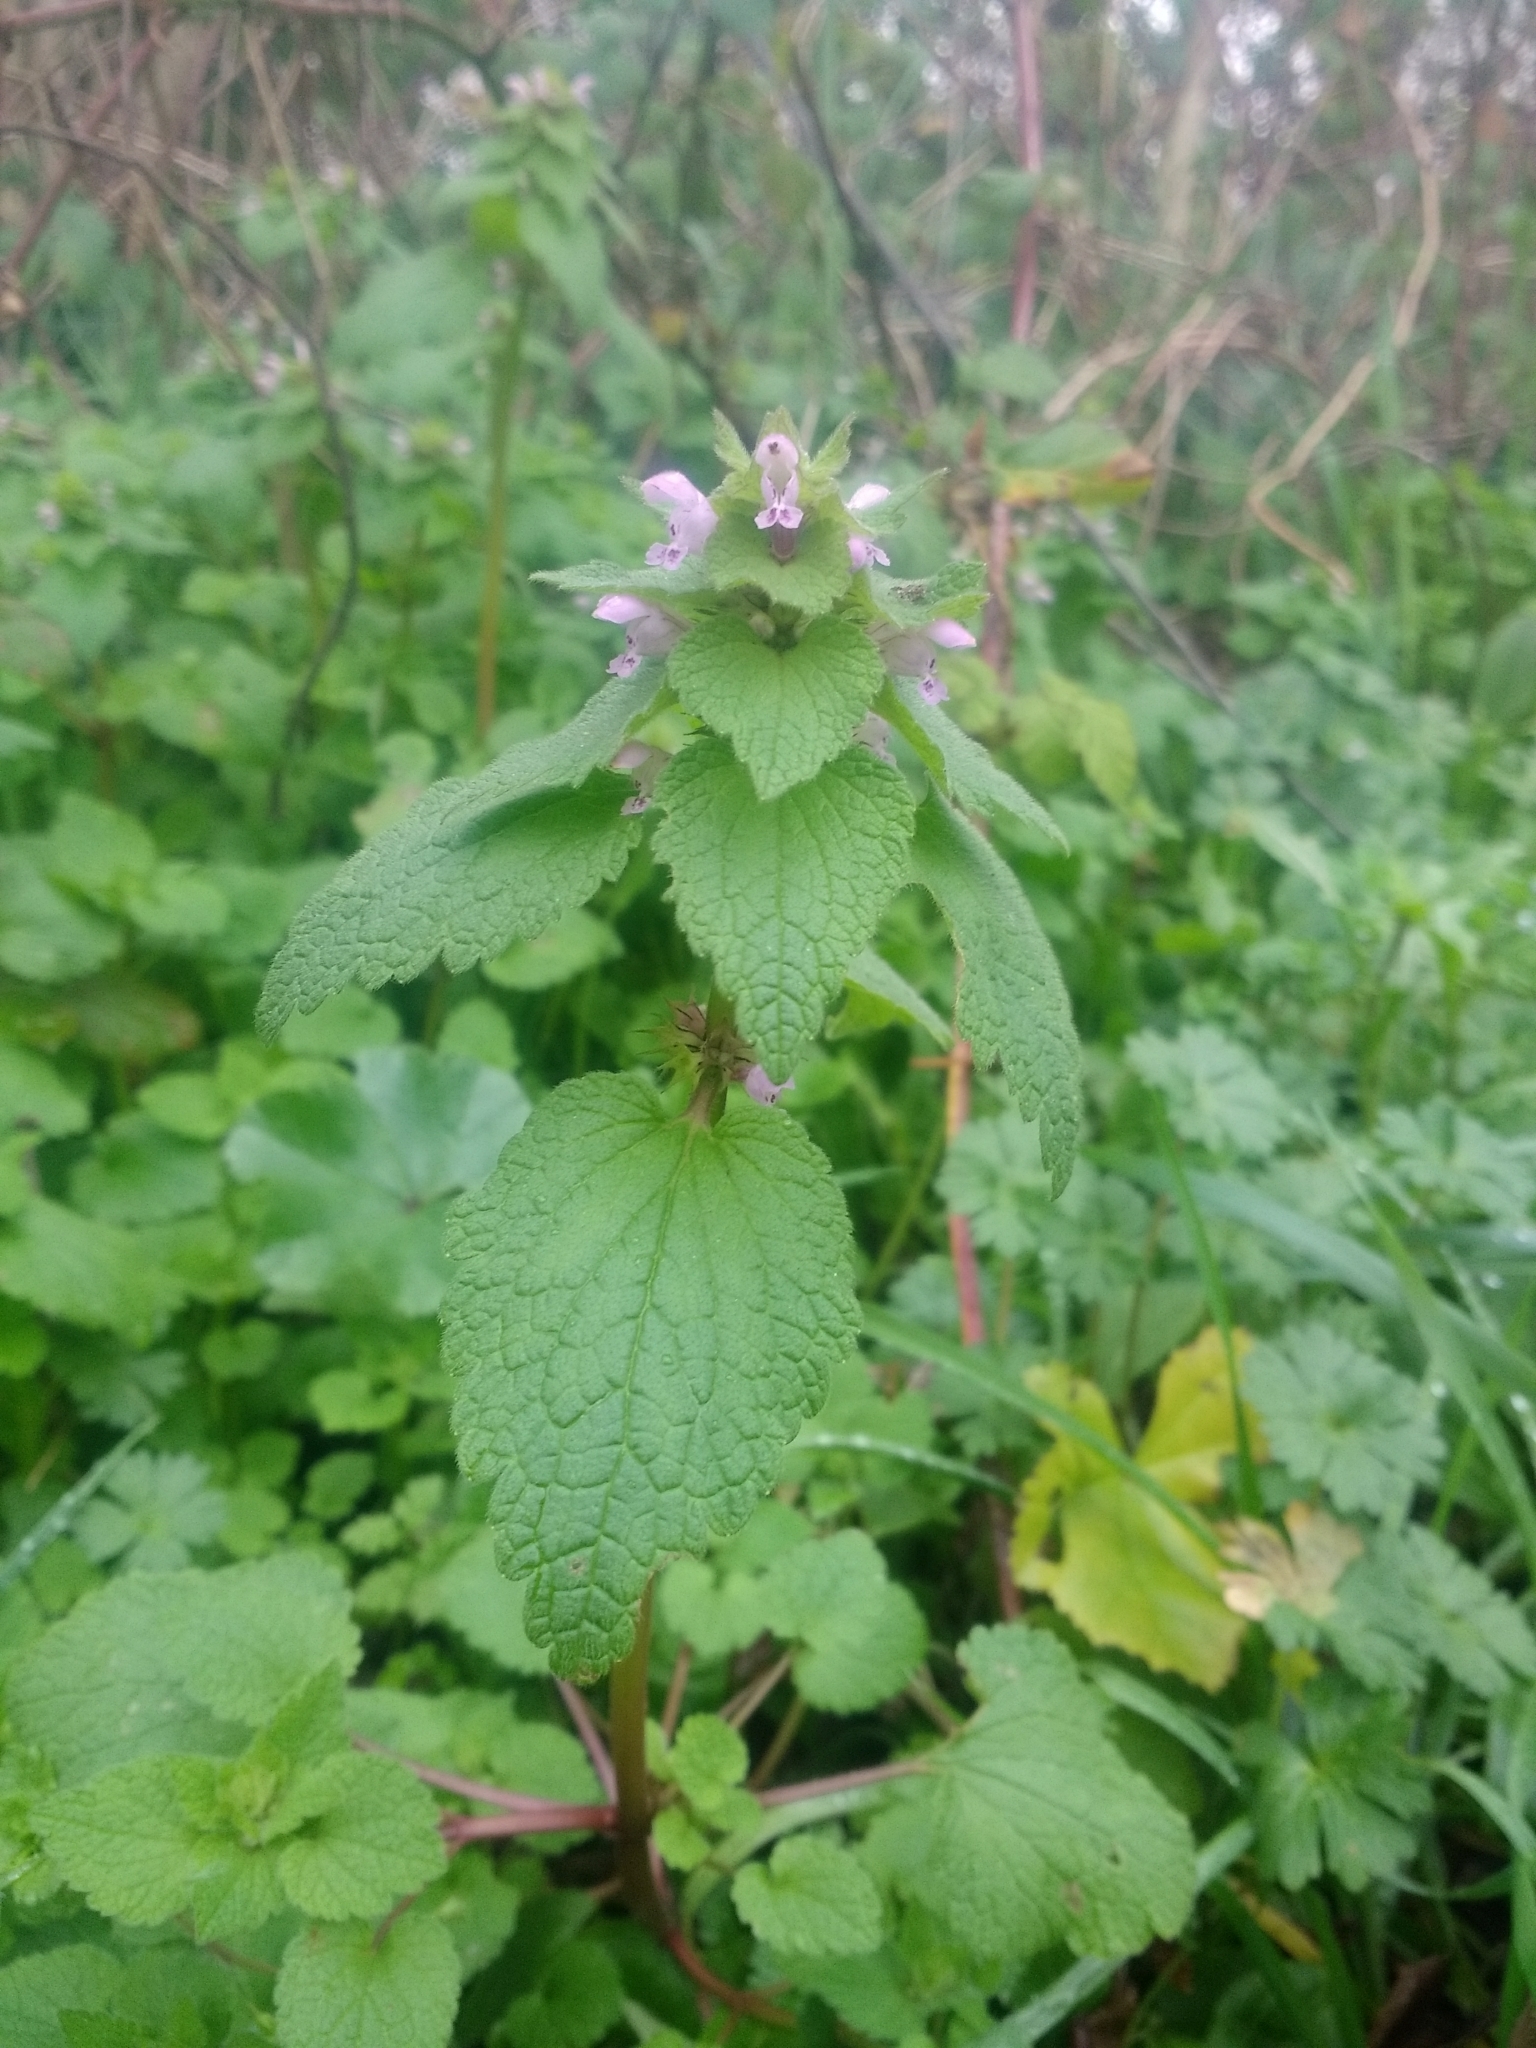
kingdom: Plantae
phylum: Tracheophyta
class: Magnoliopsida
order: Lamiales
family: Lamiaceae
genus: Lamium
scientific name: Lamium purpureum
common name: Red dead-nettle
